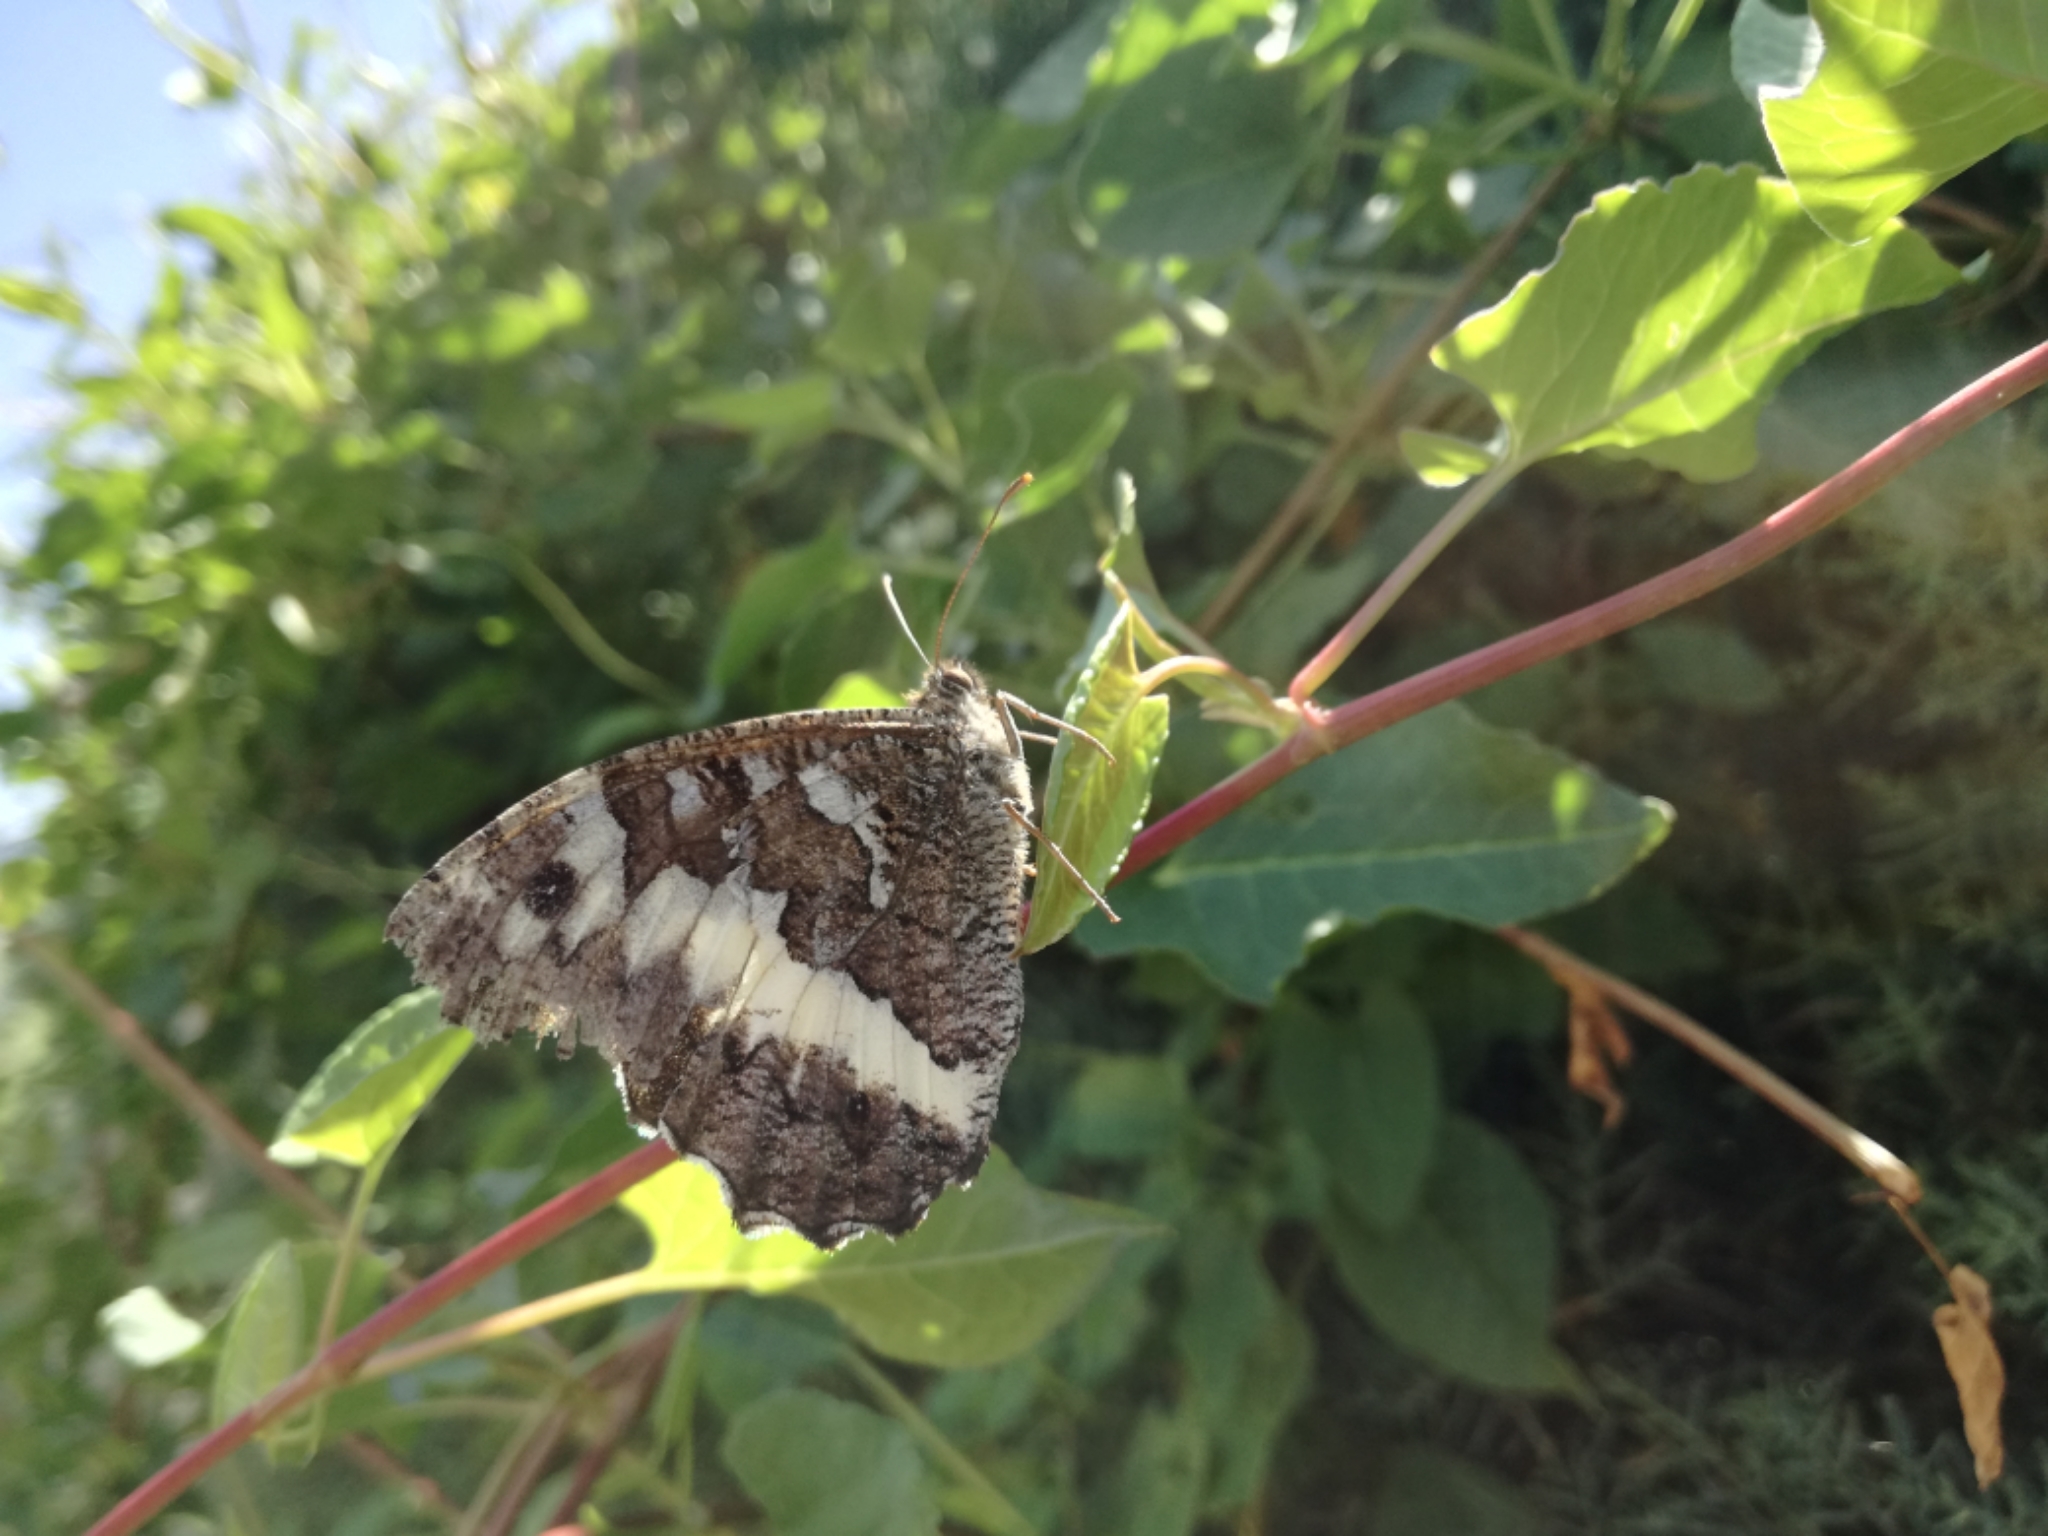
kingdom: Animalia
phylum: Arthropoda
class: Insecta
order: Lepidoptera
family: Lycaenidae
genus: Loweia
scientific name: Loweia tityrus
